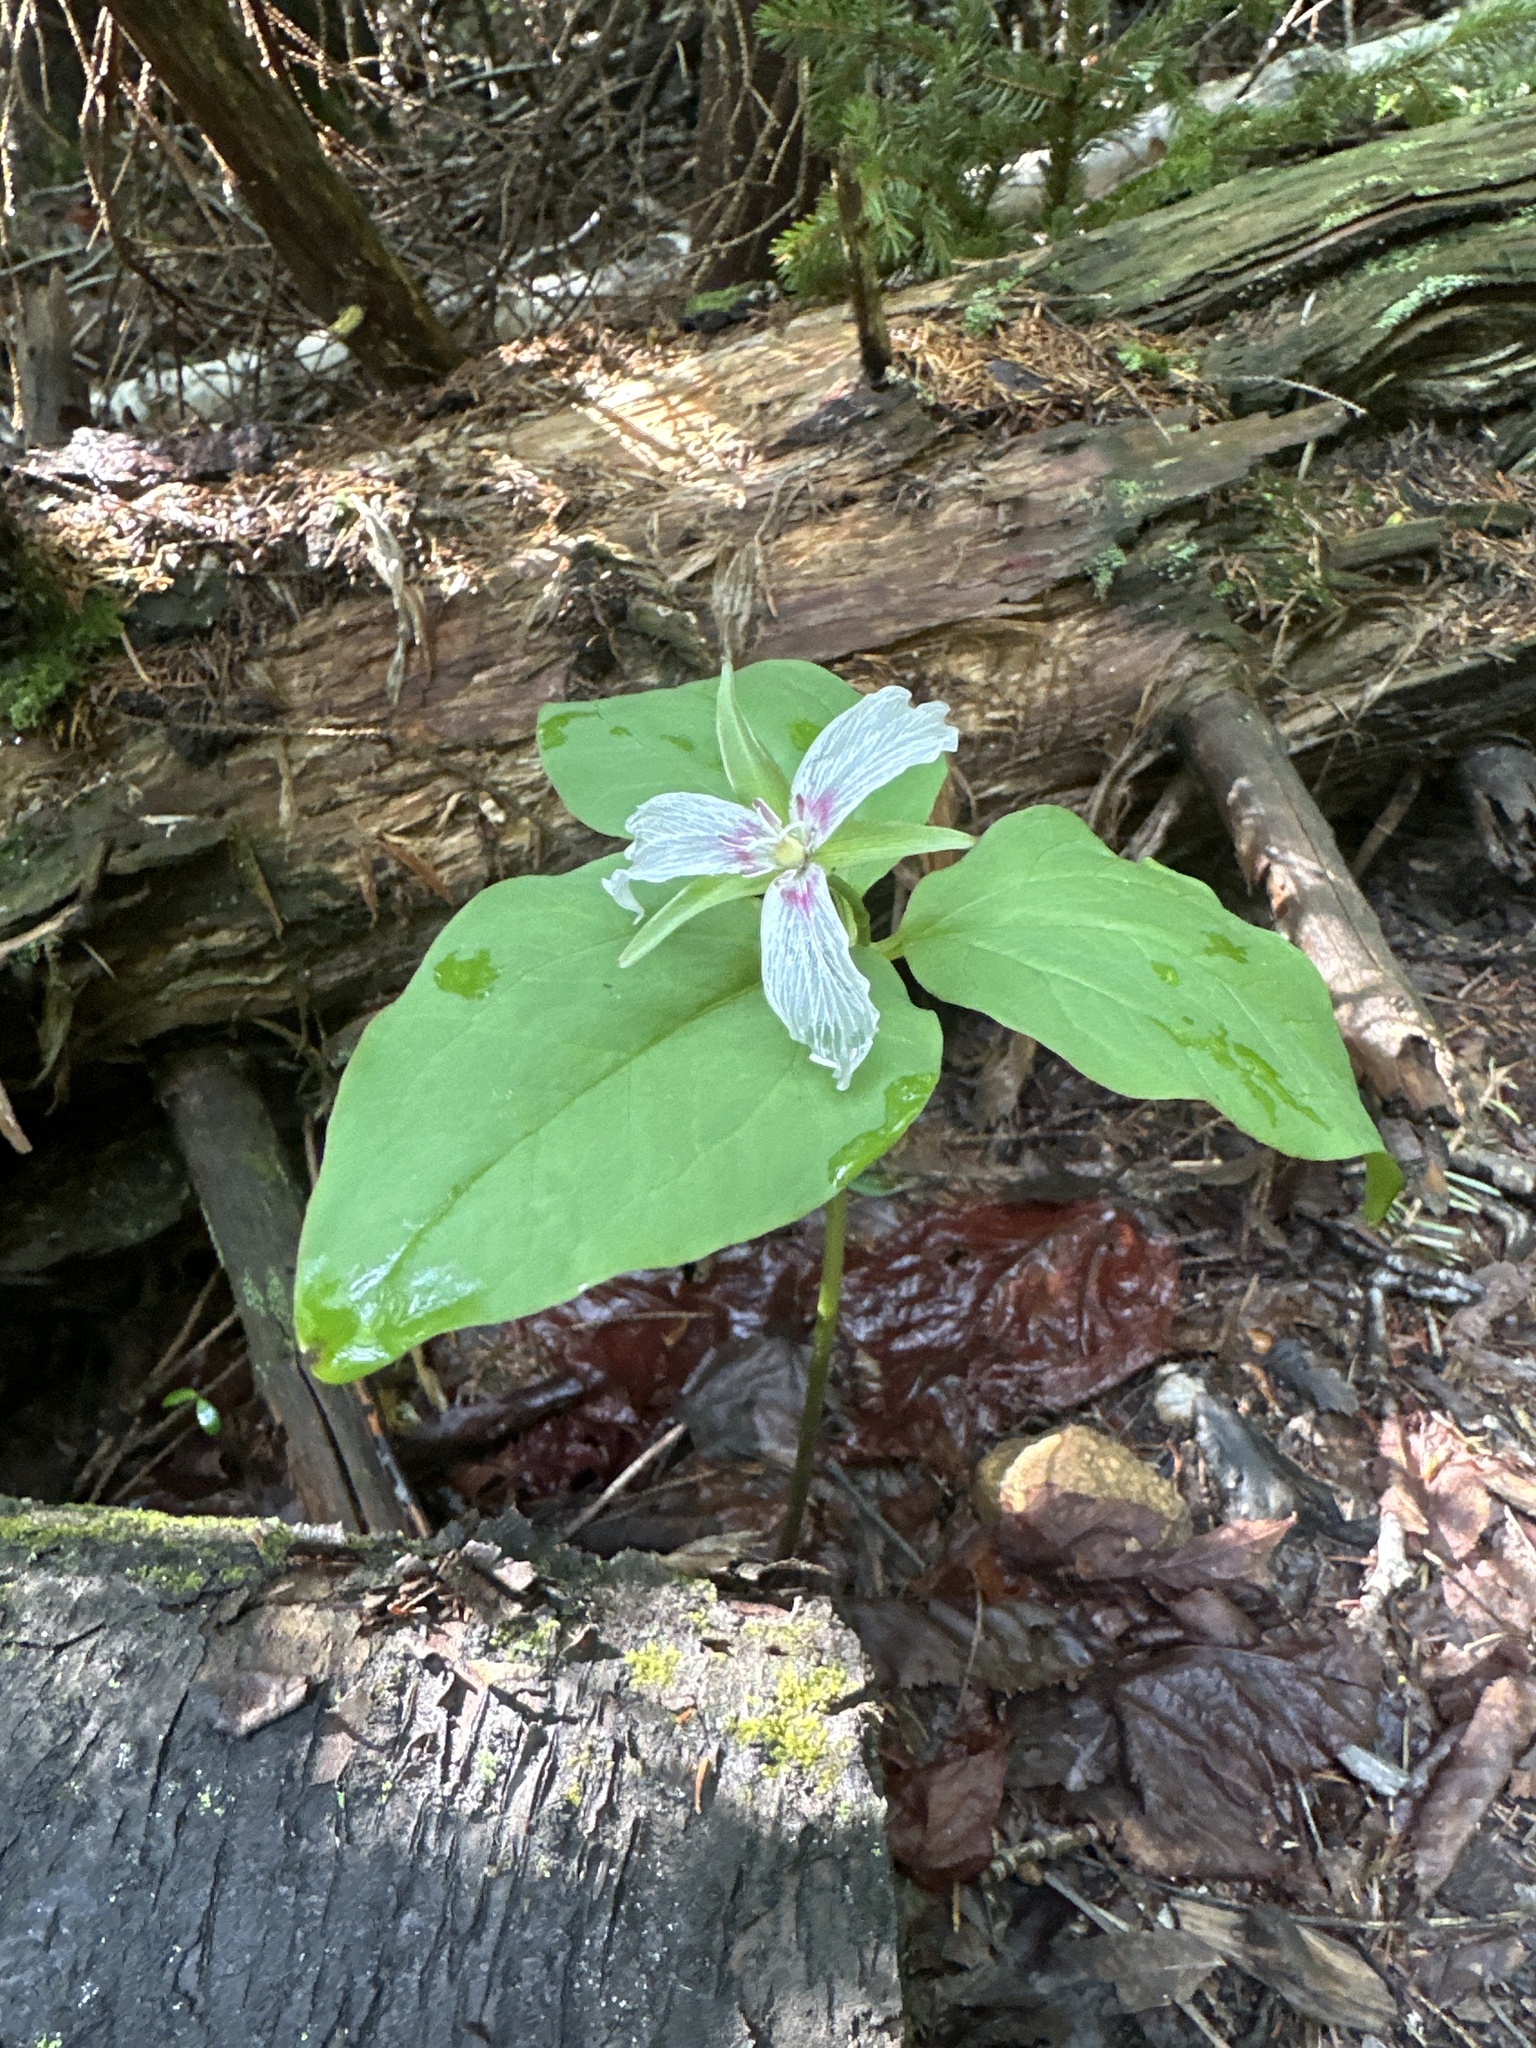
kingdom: Plantae
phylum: Tracheophyta
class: Liliopsida
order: Liliales
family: Melanthiaceae
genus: Trillium
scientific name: Trillium undulatum
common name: Paint trillium
